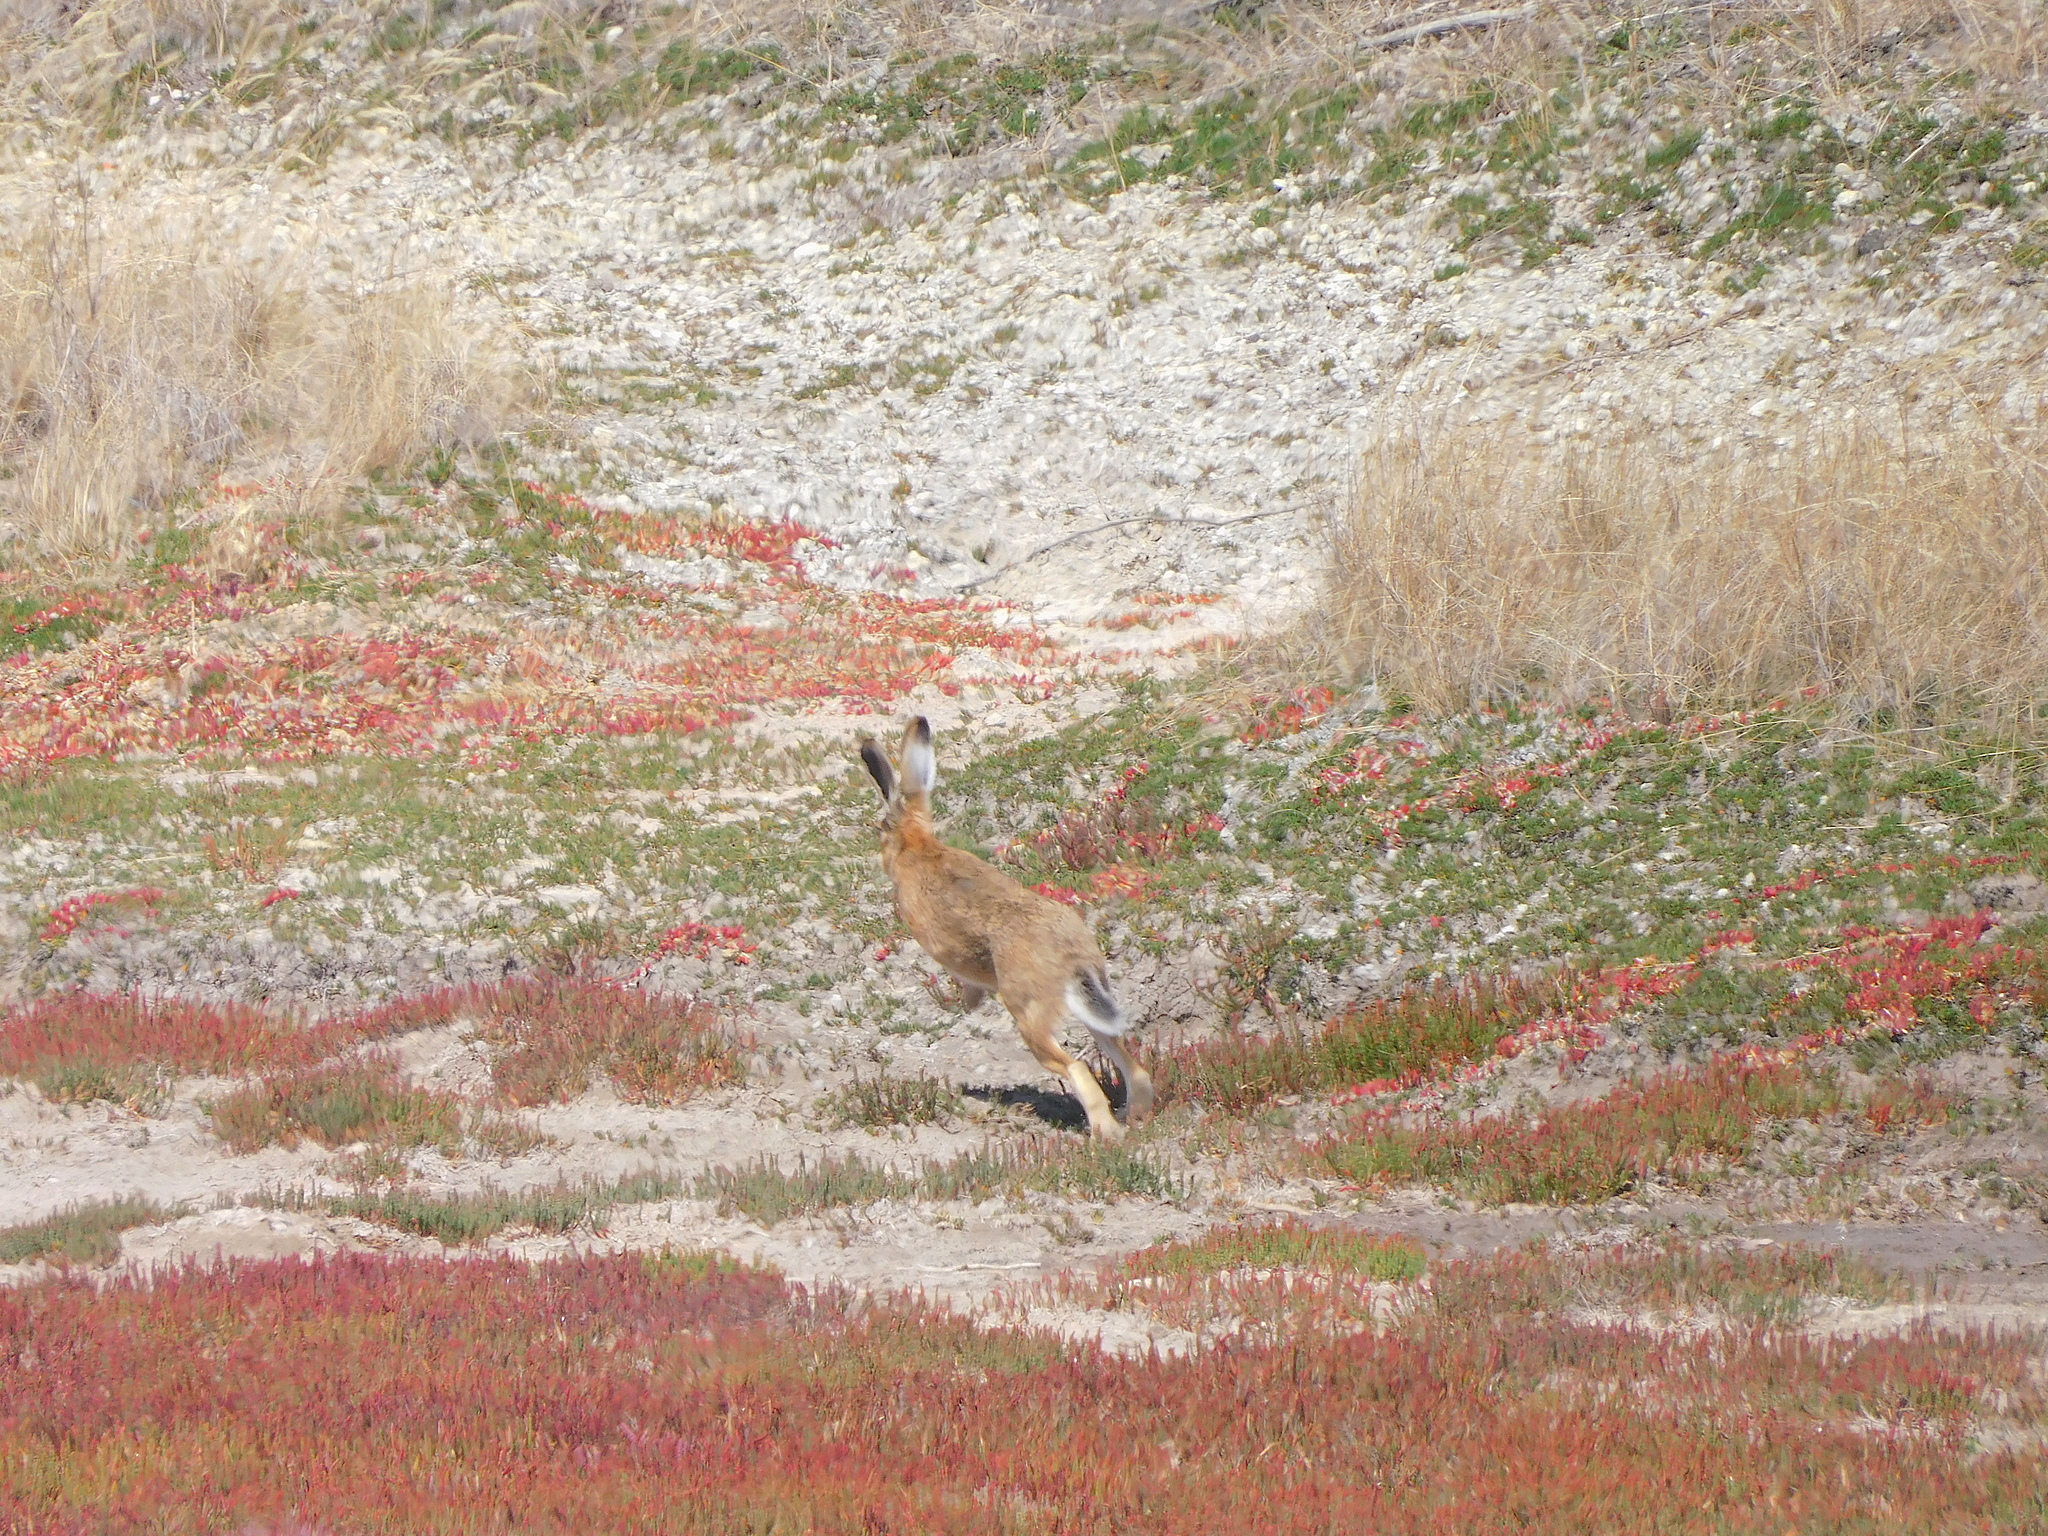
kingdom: Animalia
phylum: Chordata
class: Mammalia
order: Lagomorpha
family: Leporidae
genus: Lepus
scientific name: Lepus europaeus
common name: European hare
